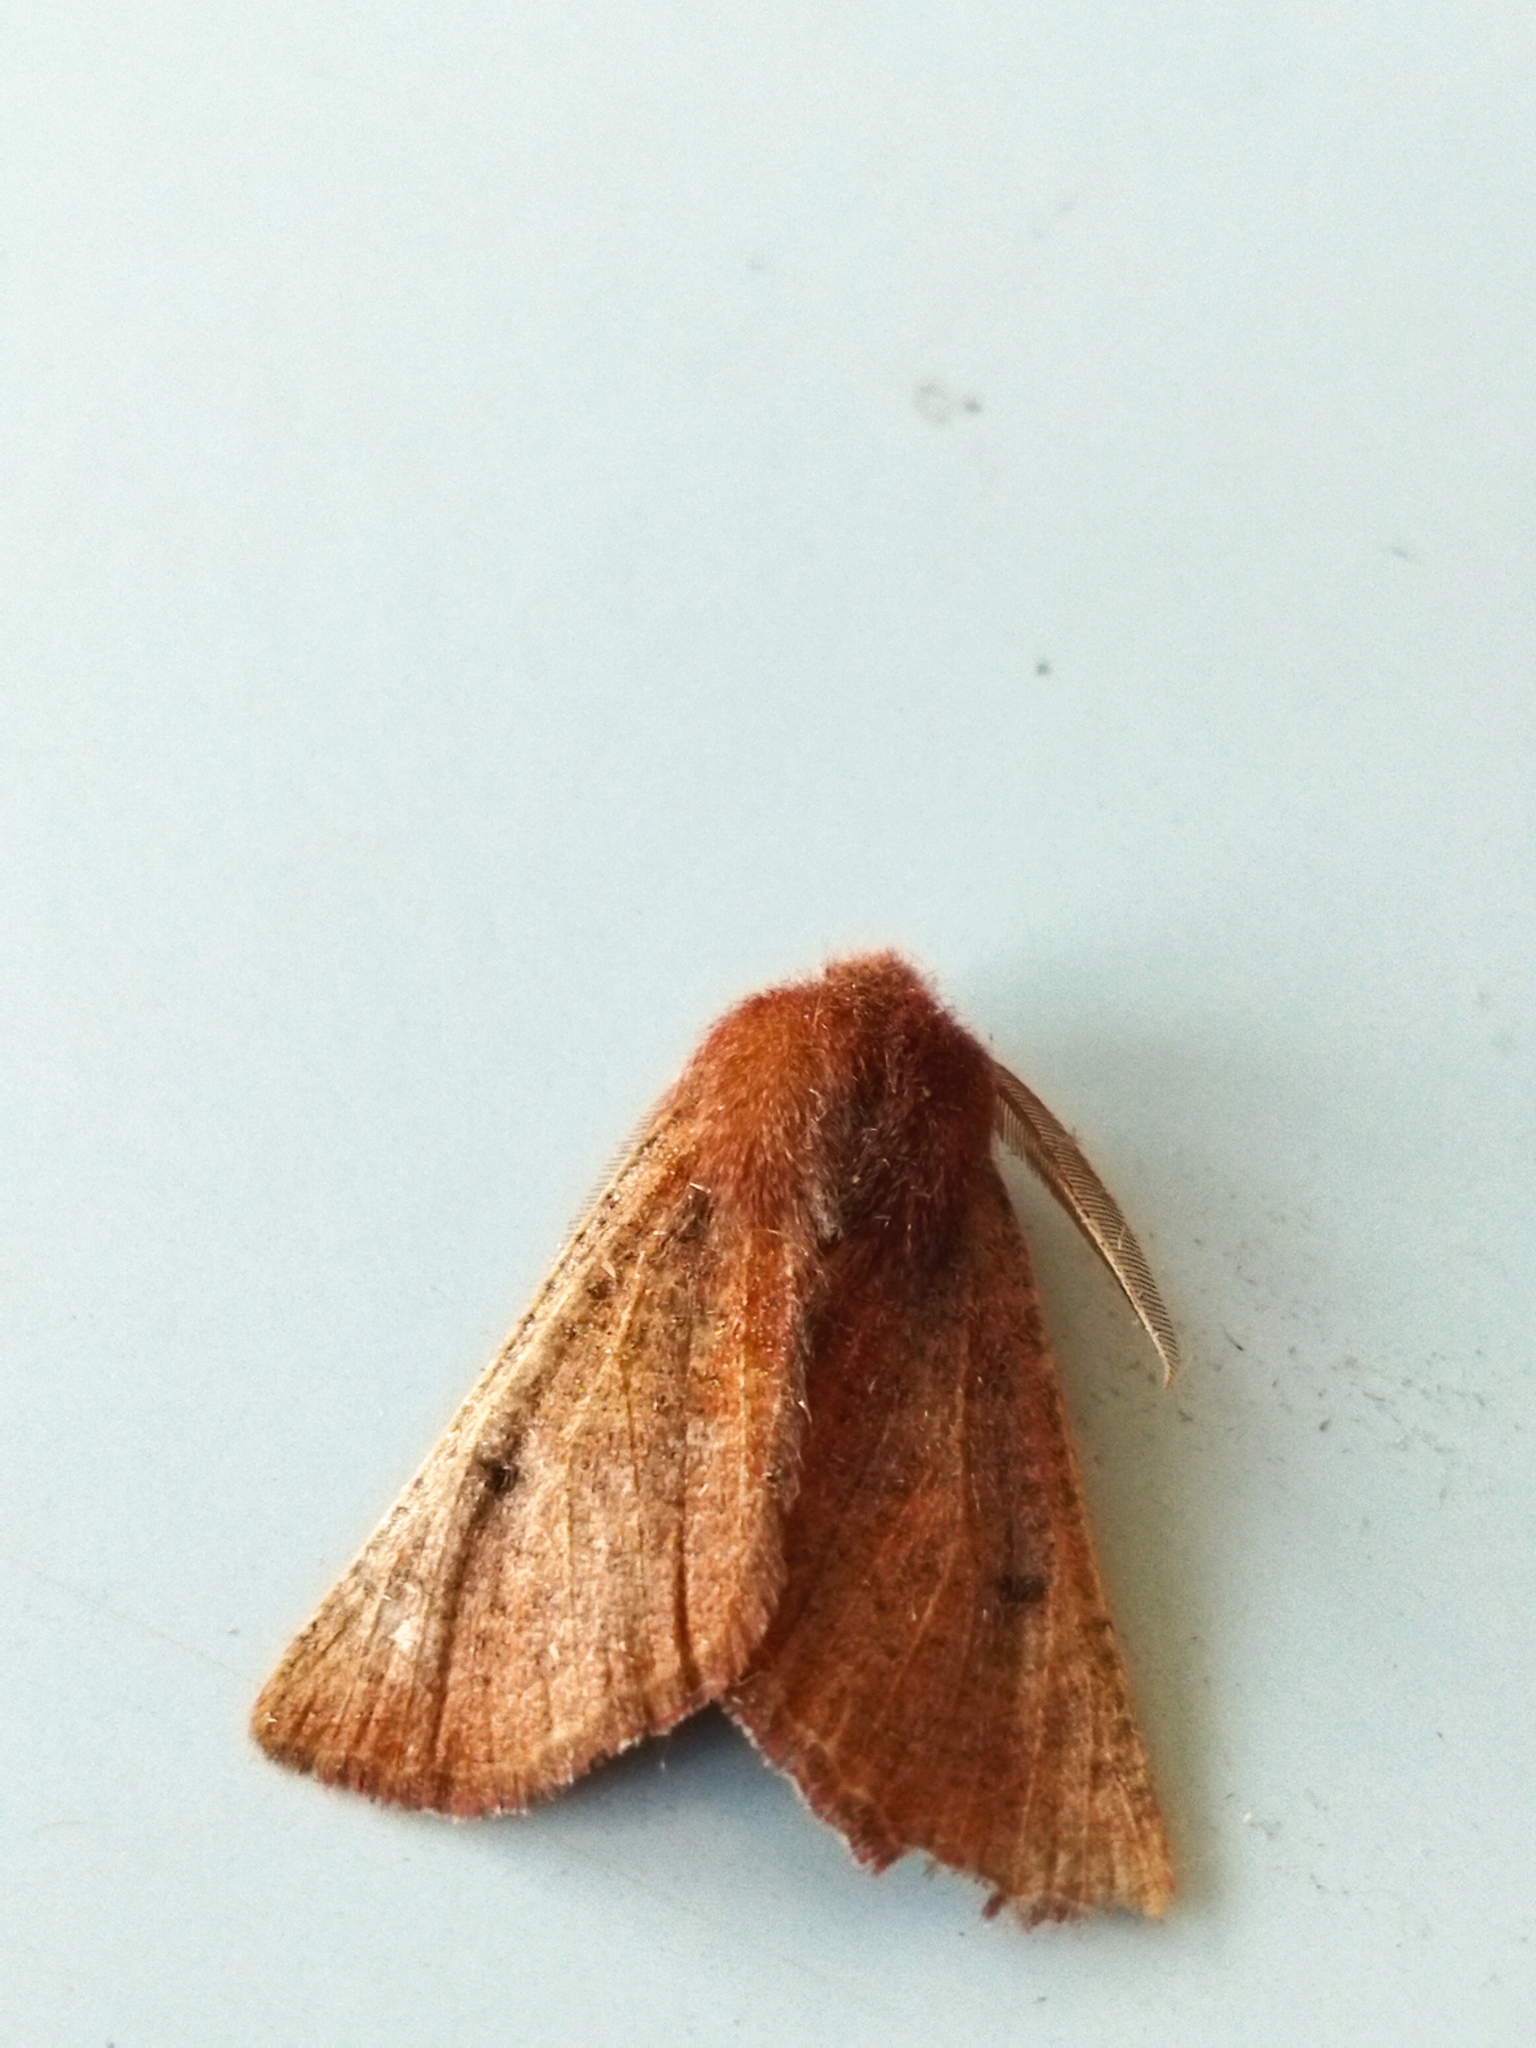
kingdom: Animalia
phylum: Arthropoda
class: Insecta
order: Lepidoptera
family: Geometridae
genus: Dasycorsa
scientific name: Dasycorsa modesta
